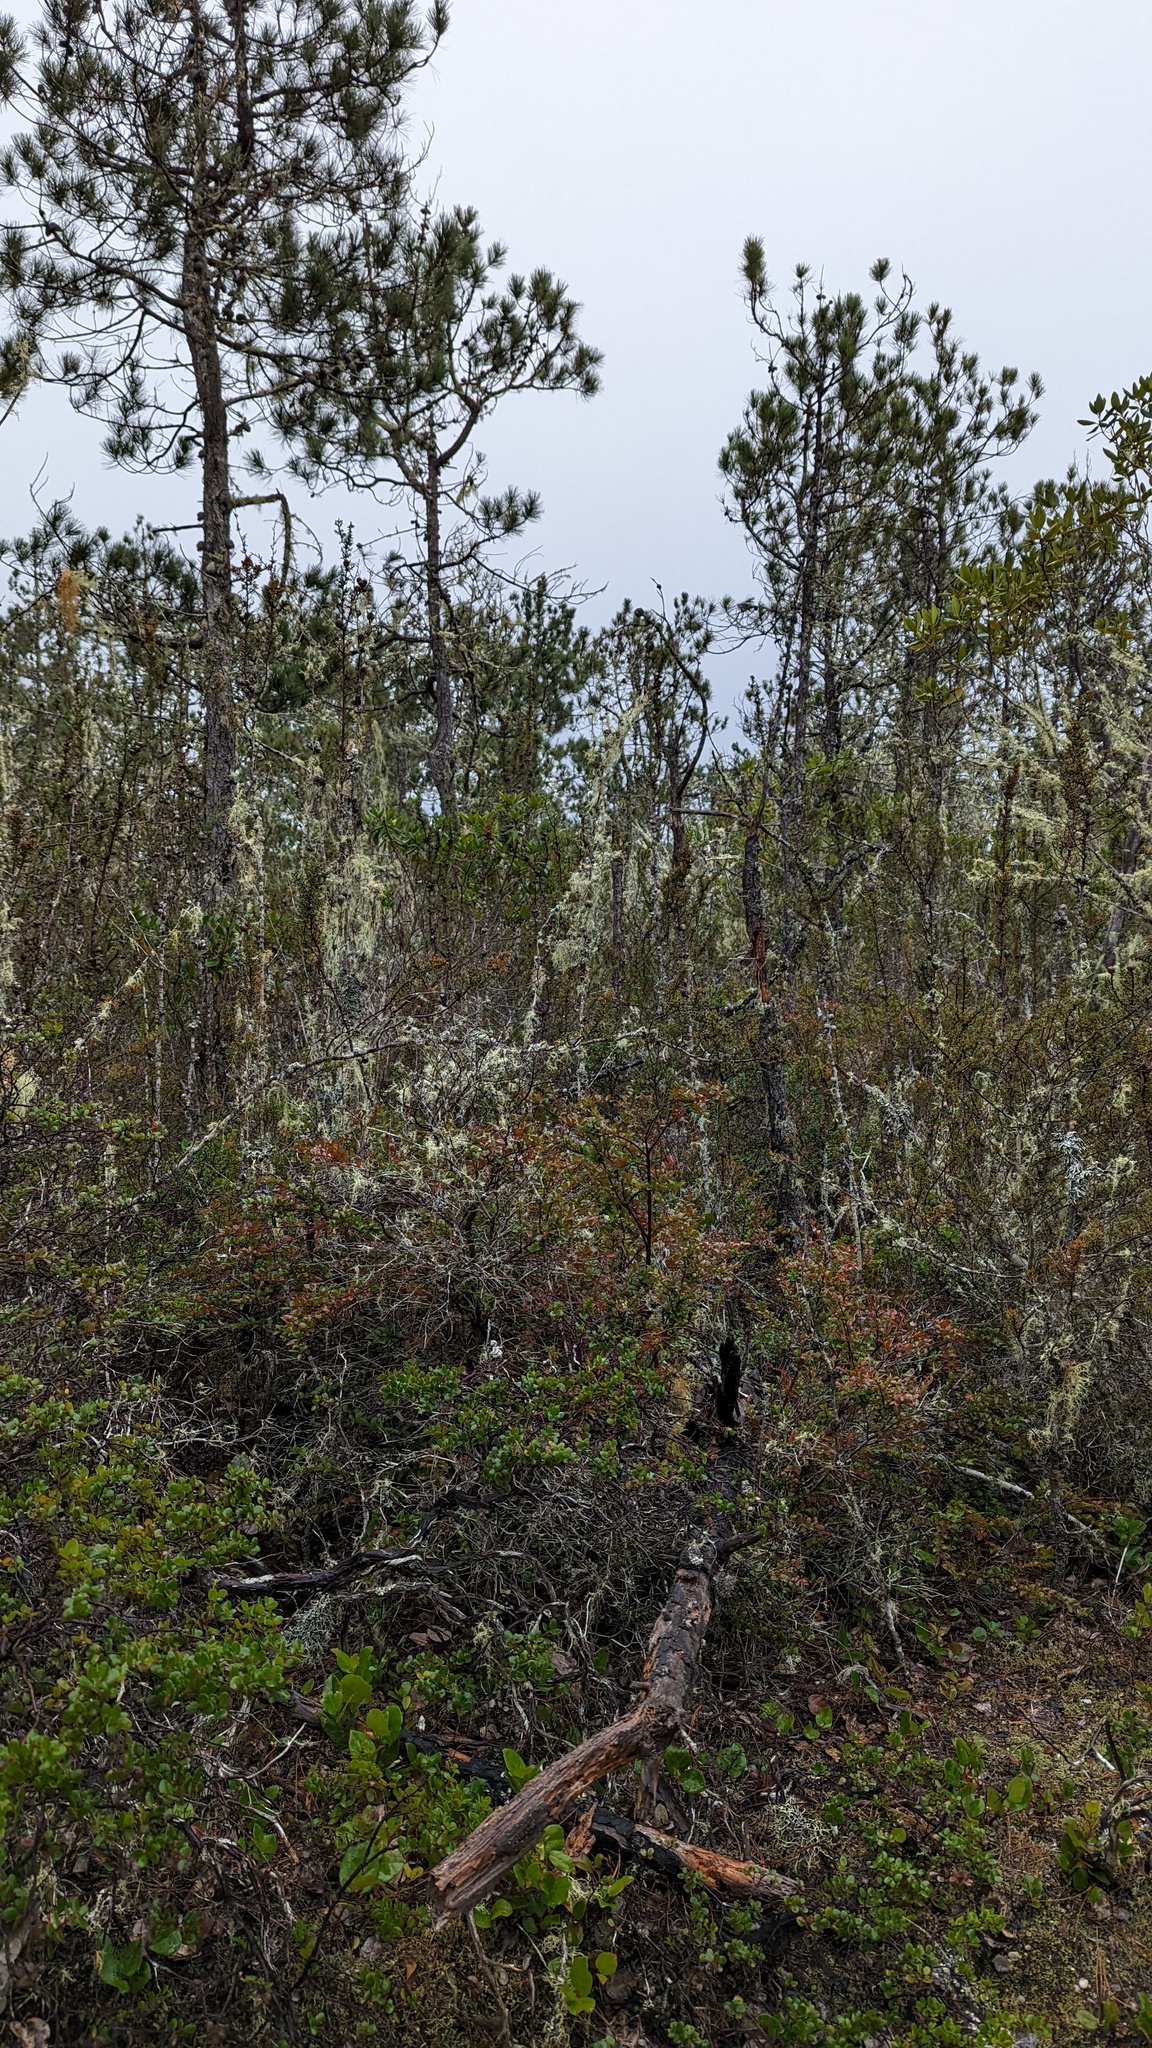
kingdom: Plantae
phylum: Tracheophyta
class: Pinopsida
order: Pinales
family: Cupressaceae
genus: Cupressus
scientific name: Cupressus goveniana
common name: Gowen cypress
